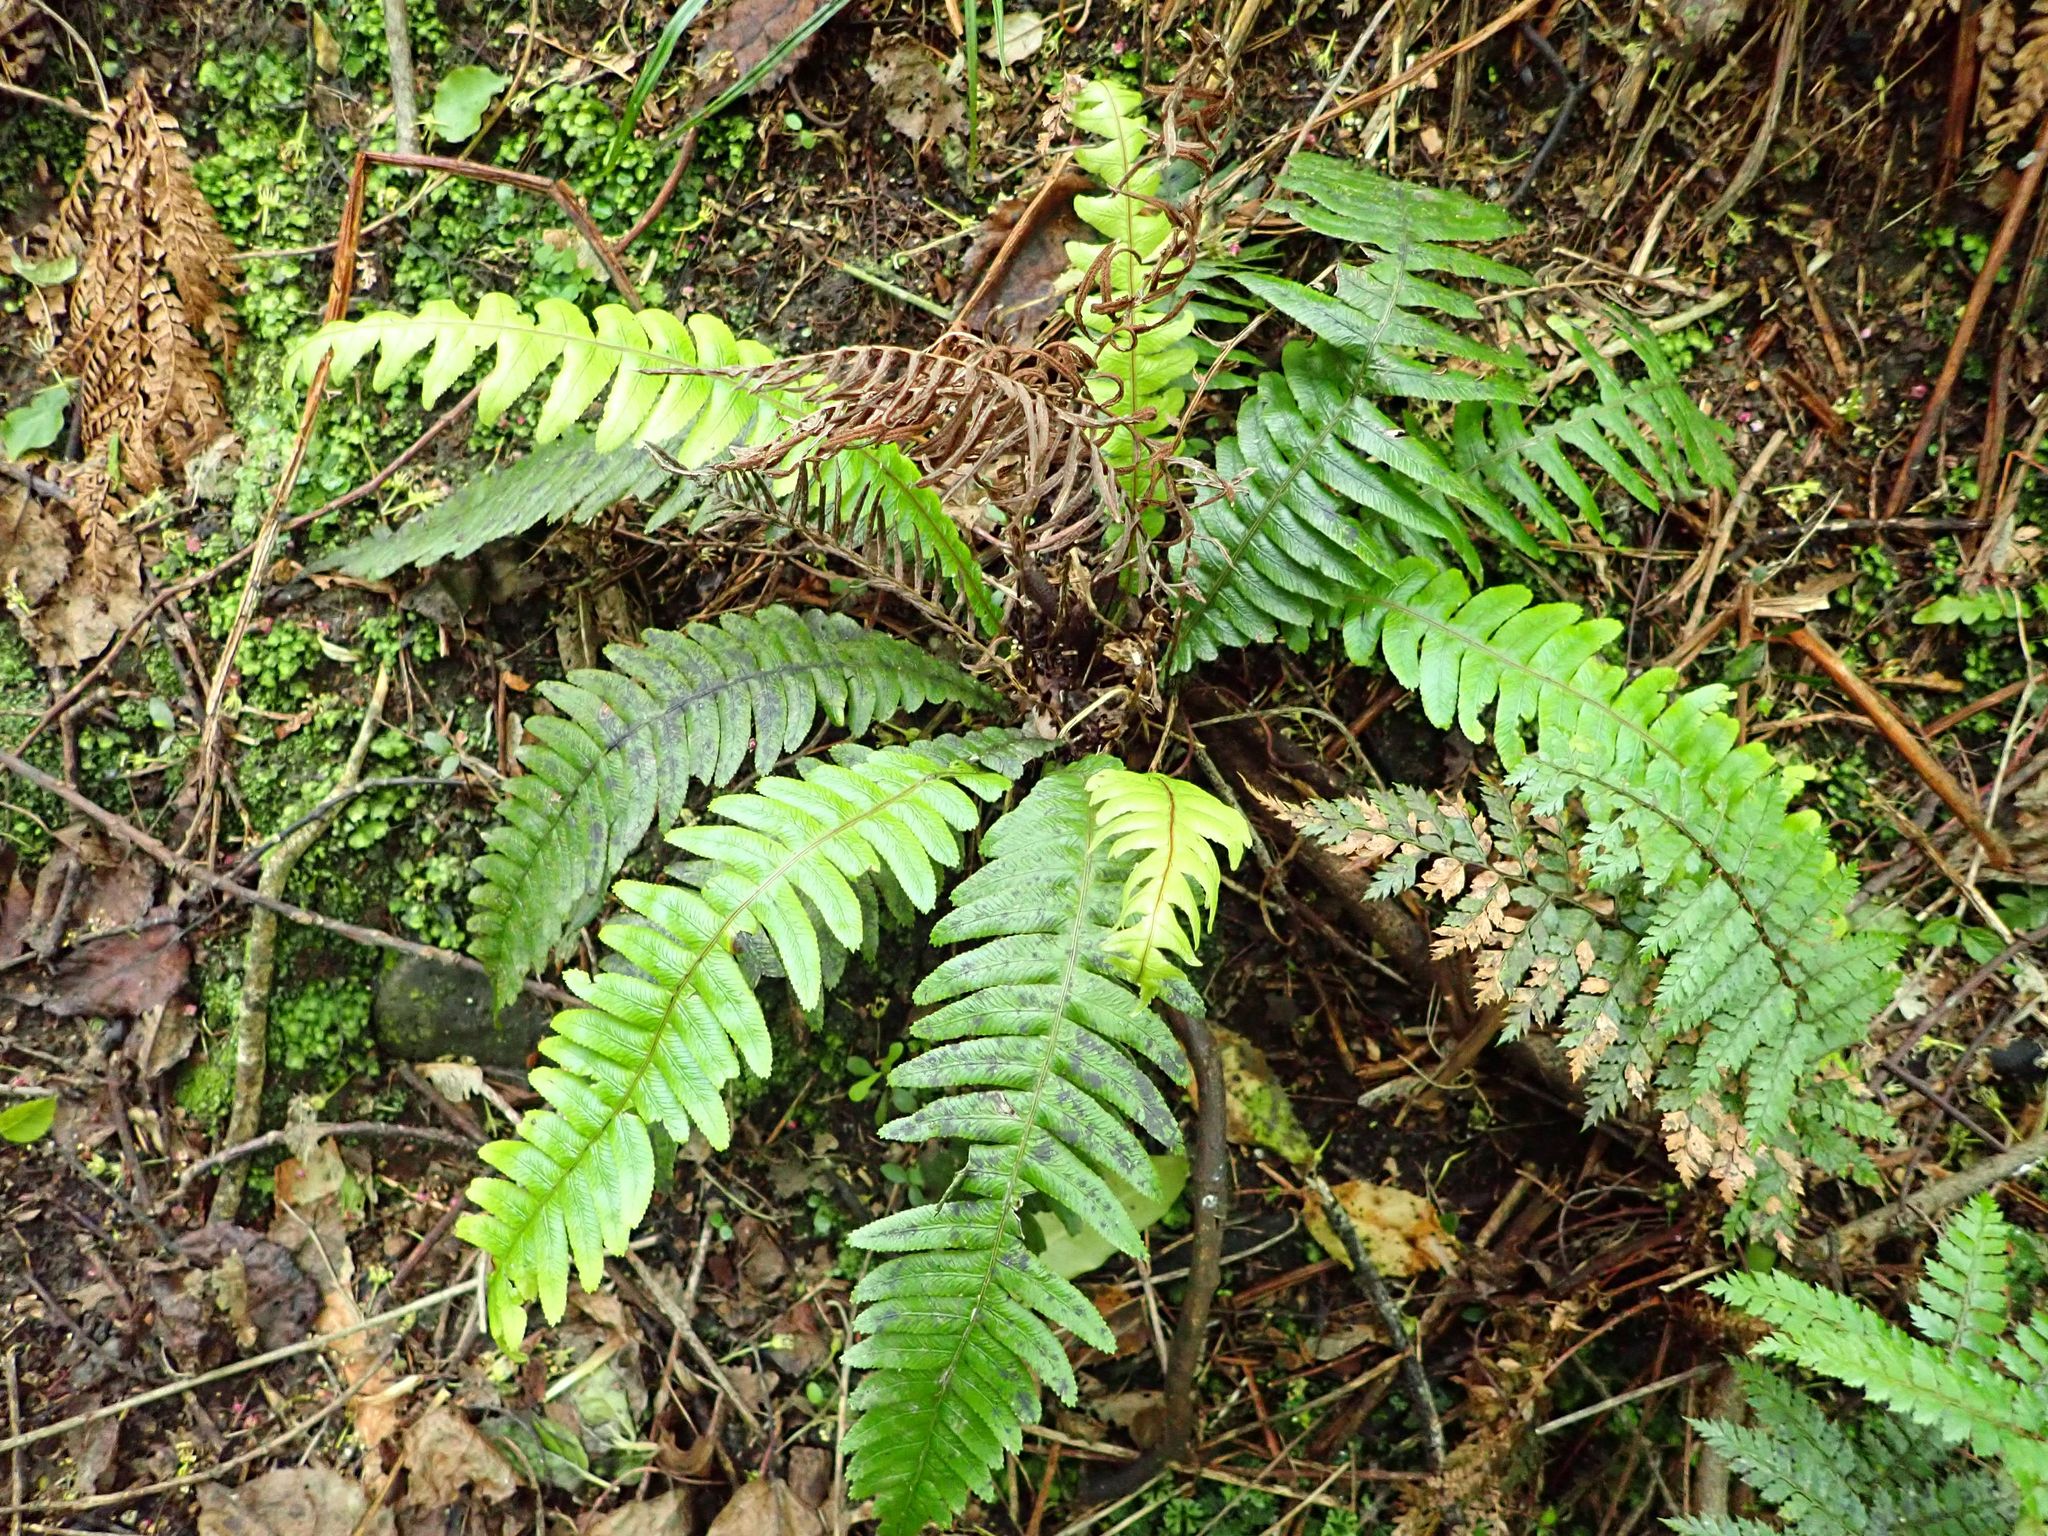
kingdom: Plantae
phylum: Tracheophyta
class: Polypodiopsida
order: Polypodiales
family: Blechnaceae
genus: Austroblechnum
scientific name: Austroblechnum lanceolatum
